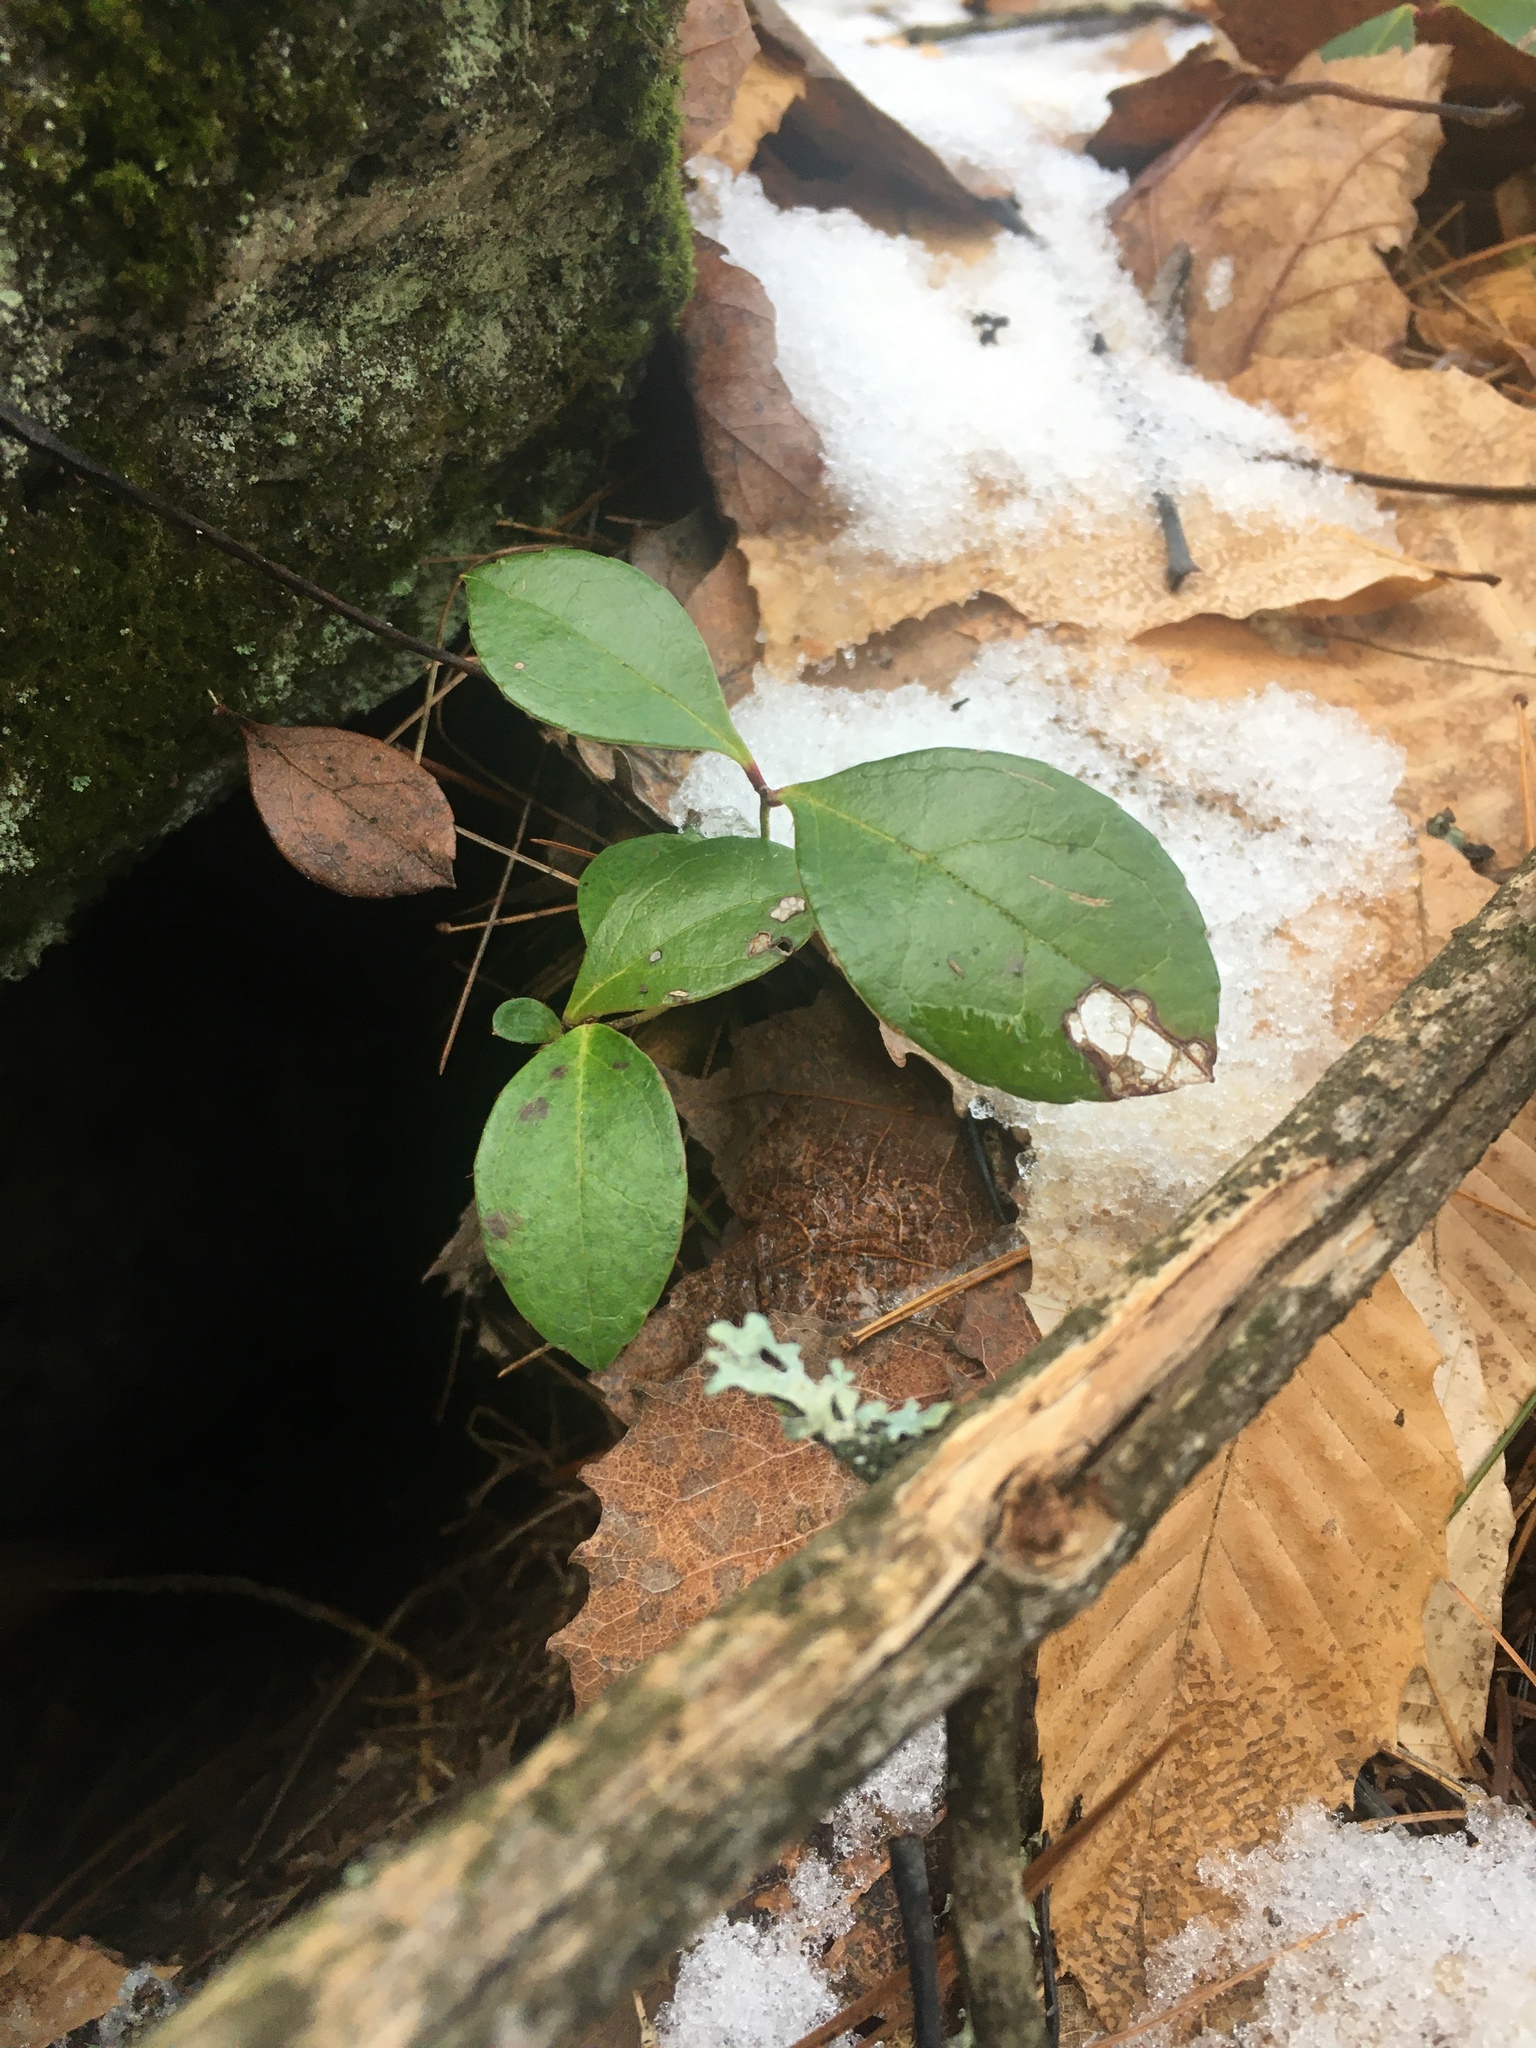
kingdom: Plantae
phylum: Tracheophyta
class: Magnoliopsida
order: Ericales
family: Ericaceae
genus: Gaultheria
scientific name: Gaultheria procumbens
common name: Checkerberry
